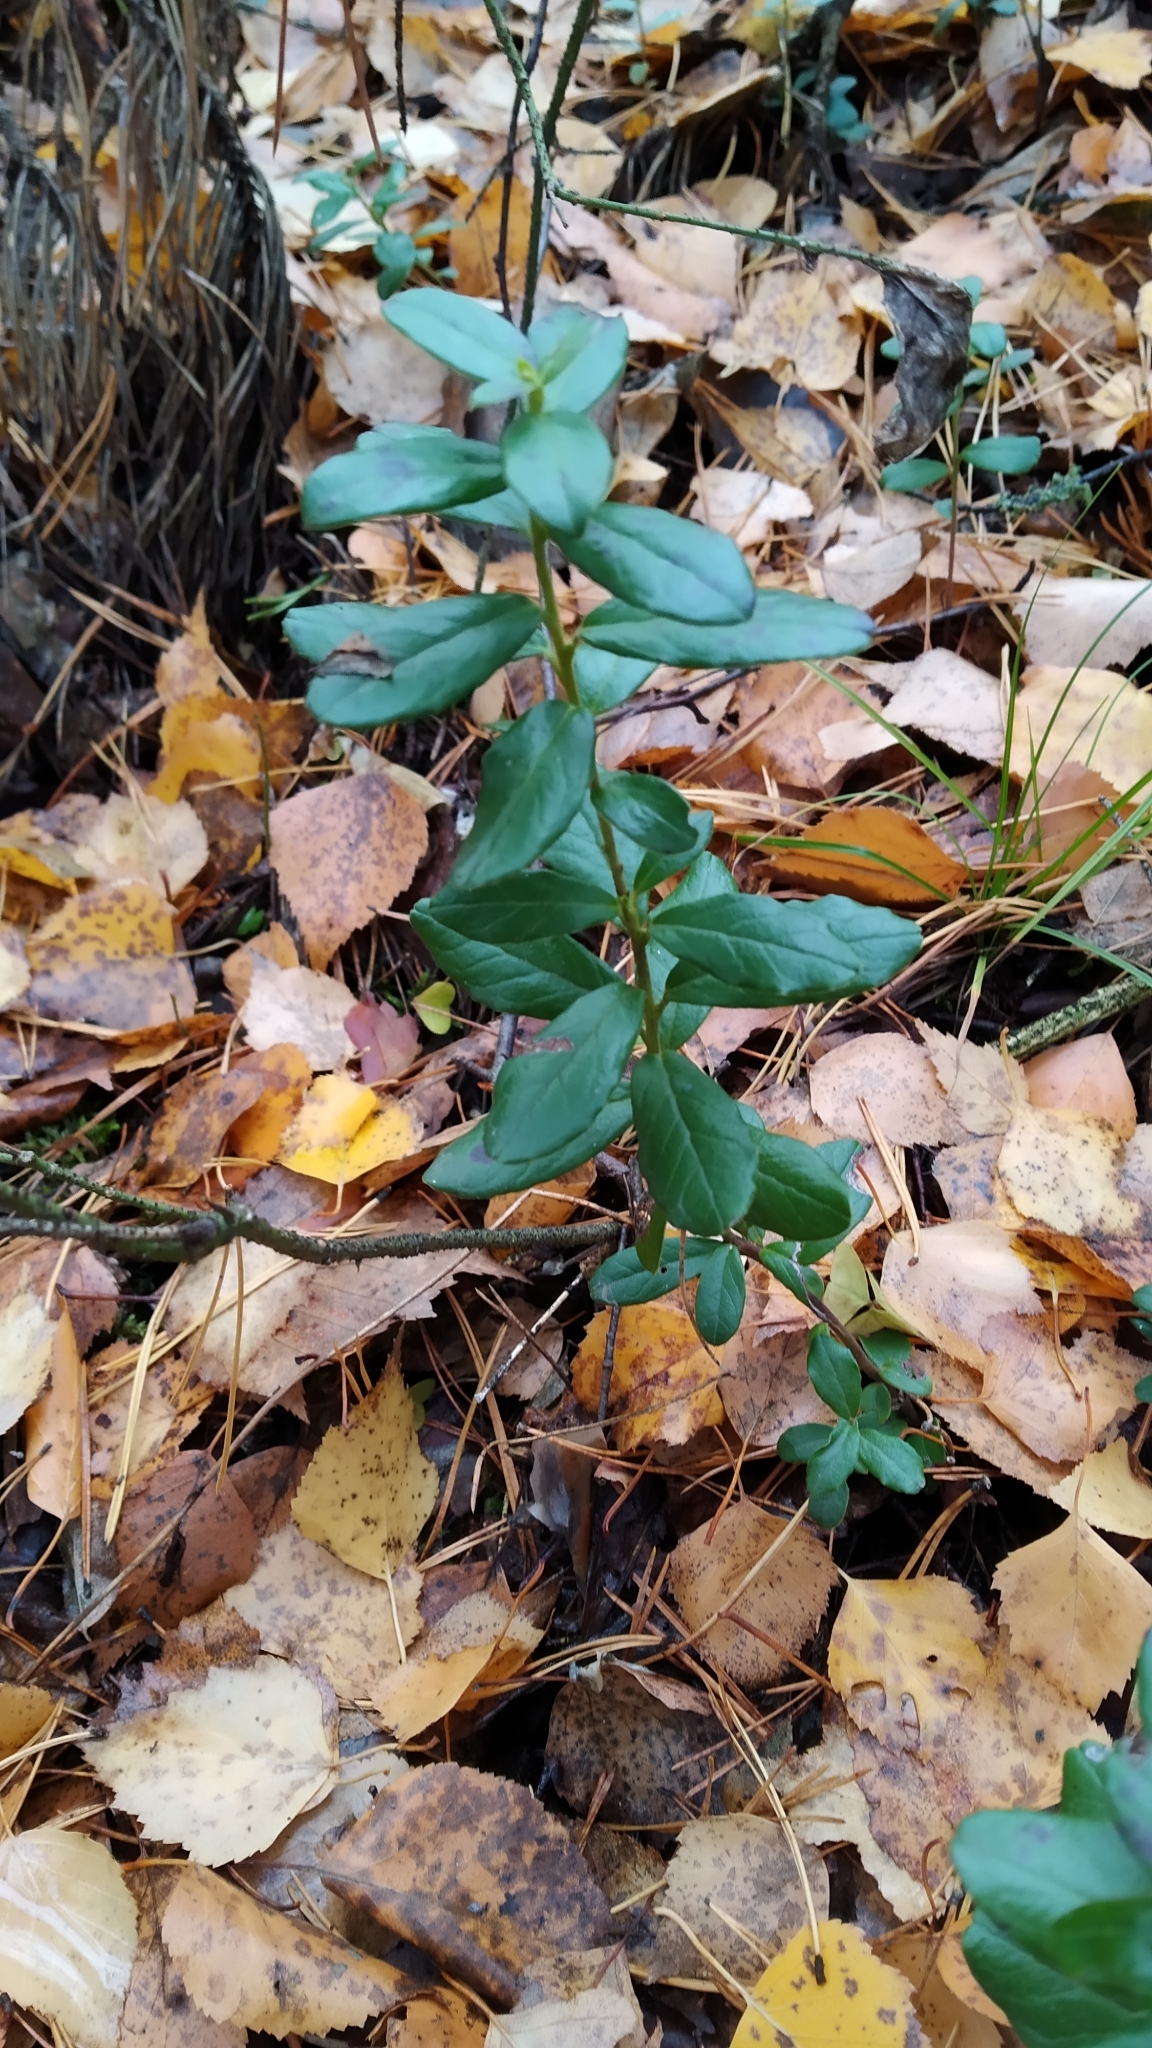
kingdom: Plantae
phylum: Tracheophyta
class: Magnoliopsida
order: Ericales
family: Ericaceae
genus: Vaccinium
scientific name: Vaccinium vitis-idaea
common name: Cowberry
